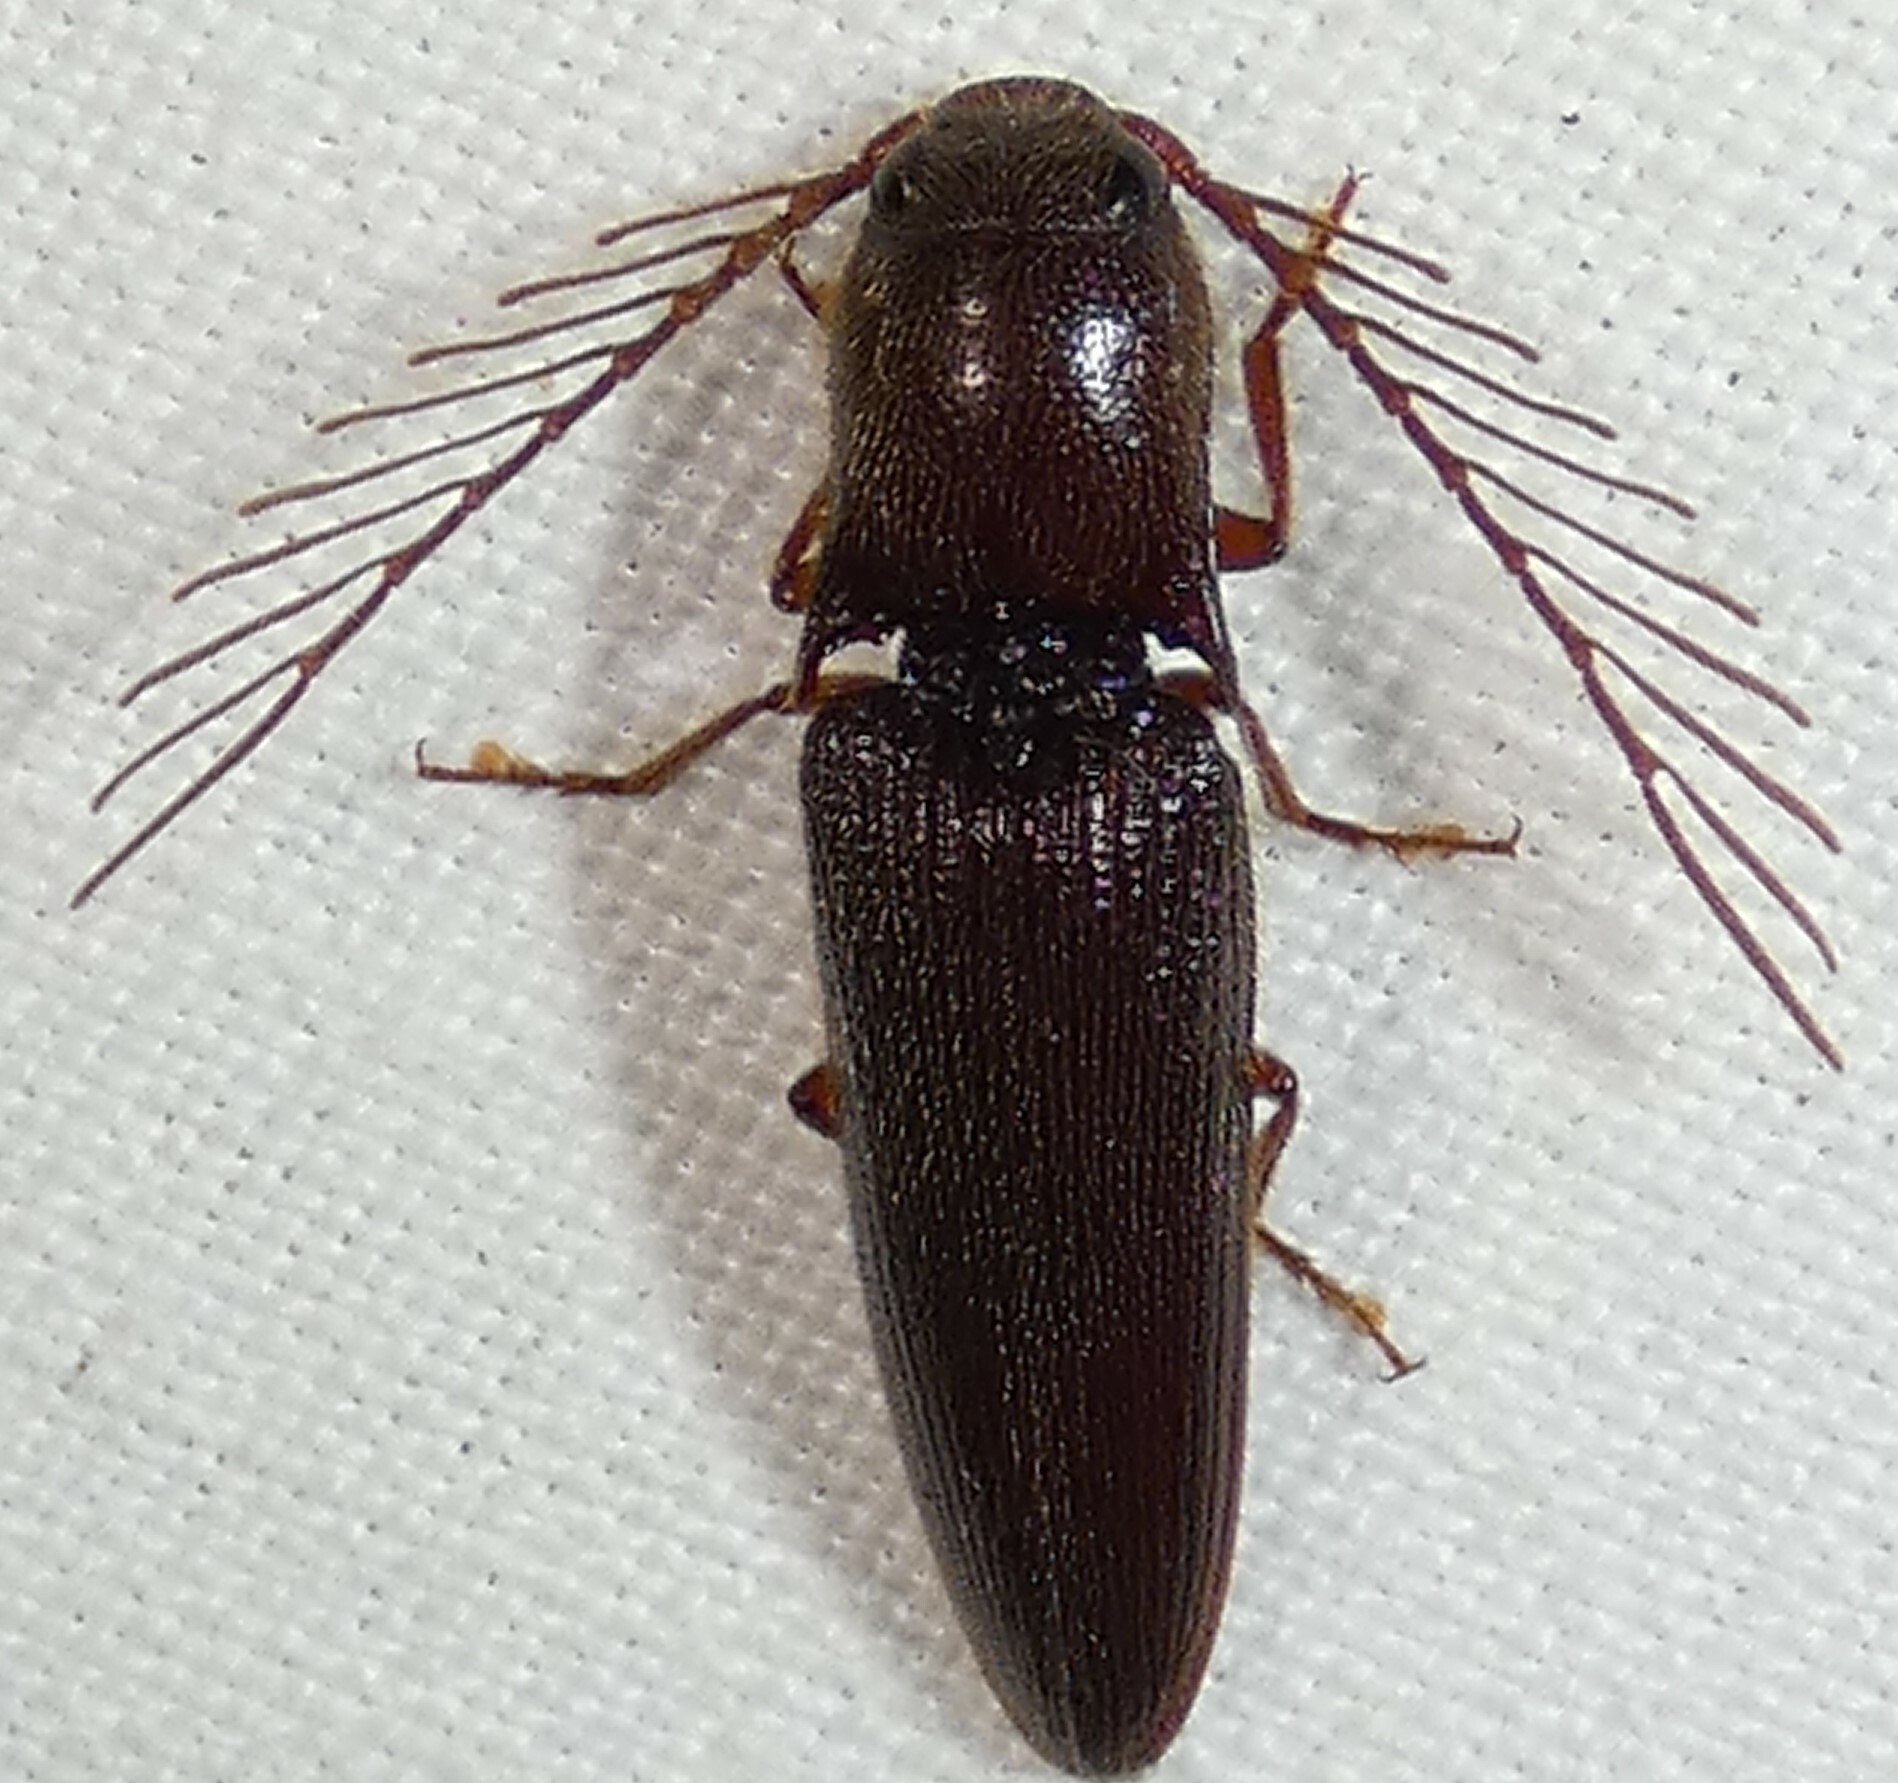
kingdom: Animalia
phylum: Arthropoda
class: Insecta
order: Coleoptera
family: Elateridae
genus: Dicrepidius
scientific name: Dicrepidius palmatus
